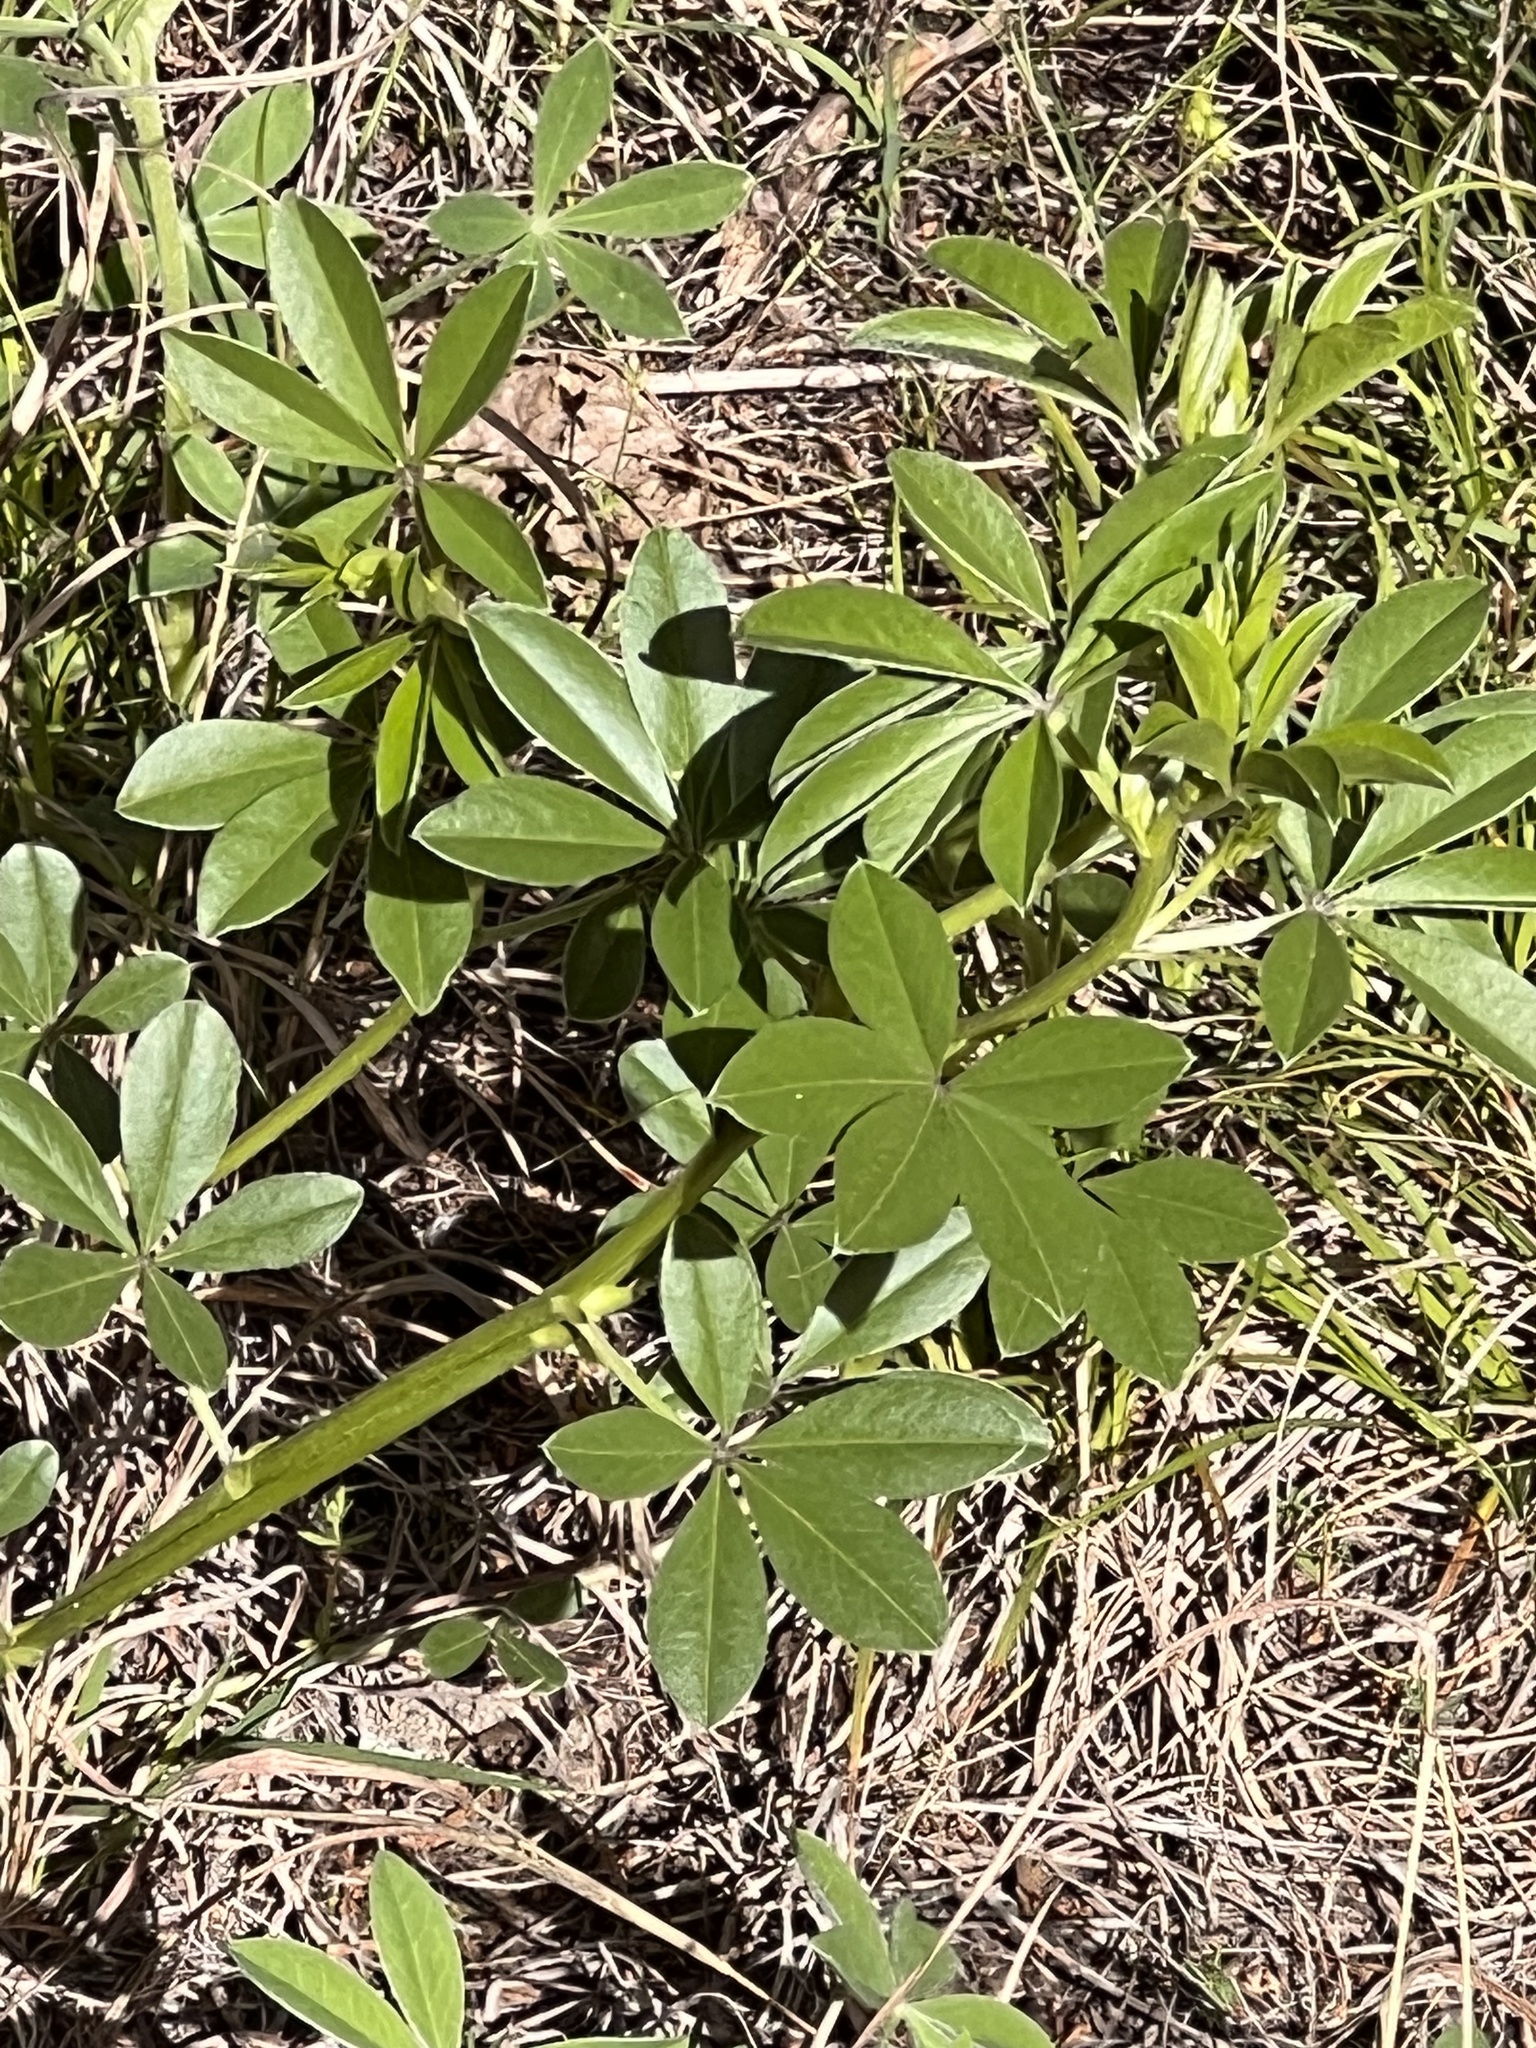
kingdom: Plantae
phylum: Tracheophyta
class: Magnoliopsida
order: Fabales
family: Fabaceae
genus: Pediomelum
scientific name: Pediomelum cuspidatum
